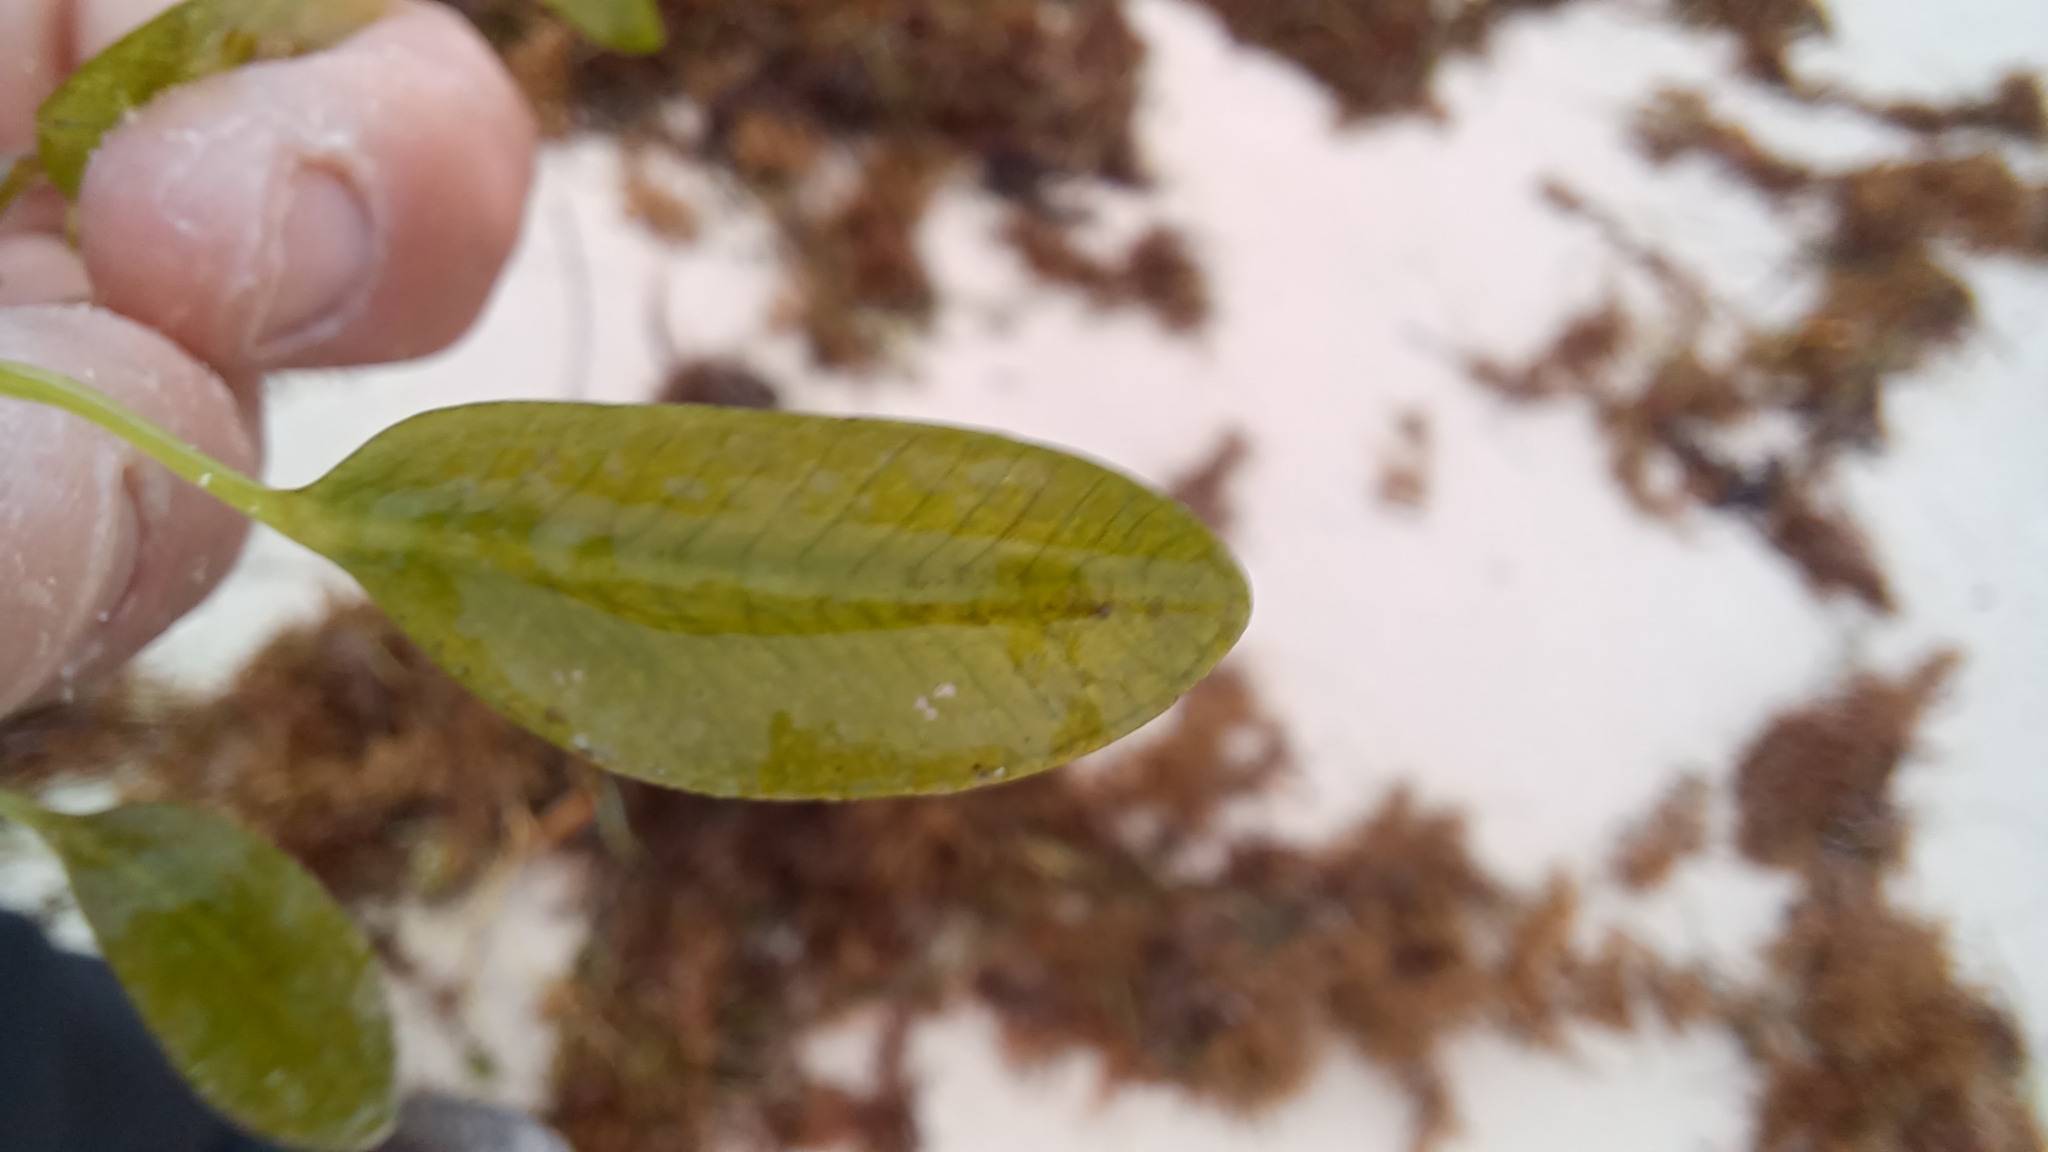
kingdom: Plantae
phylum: Tracheophyta
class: Liliopsida
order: Alismatales
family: Hydrocharitaceae
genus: Halophila
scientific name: Halophila ovalis
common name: Species code: ho
